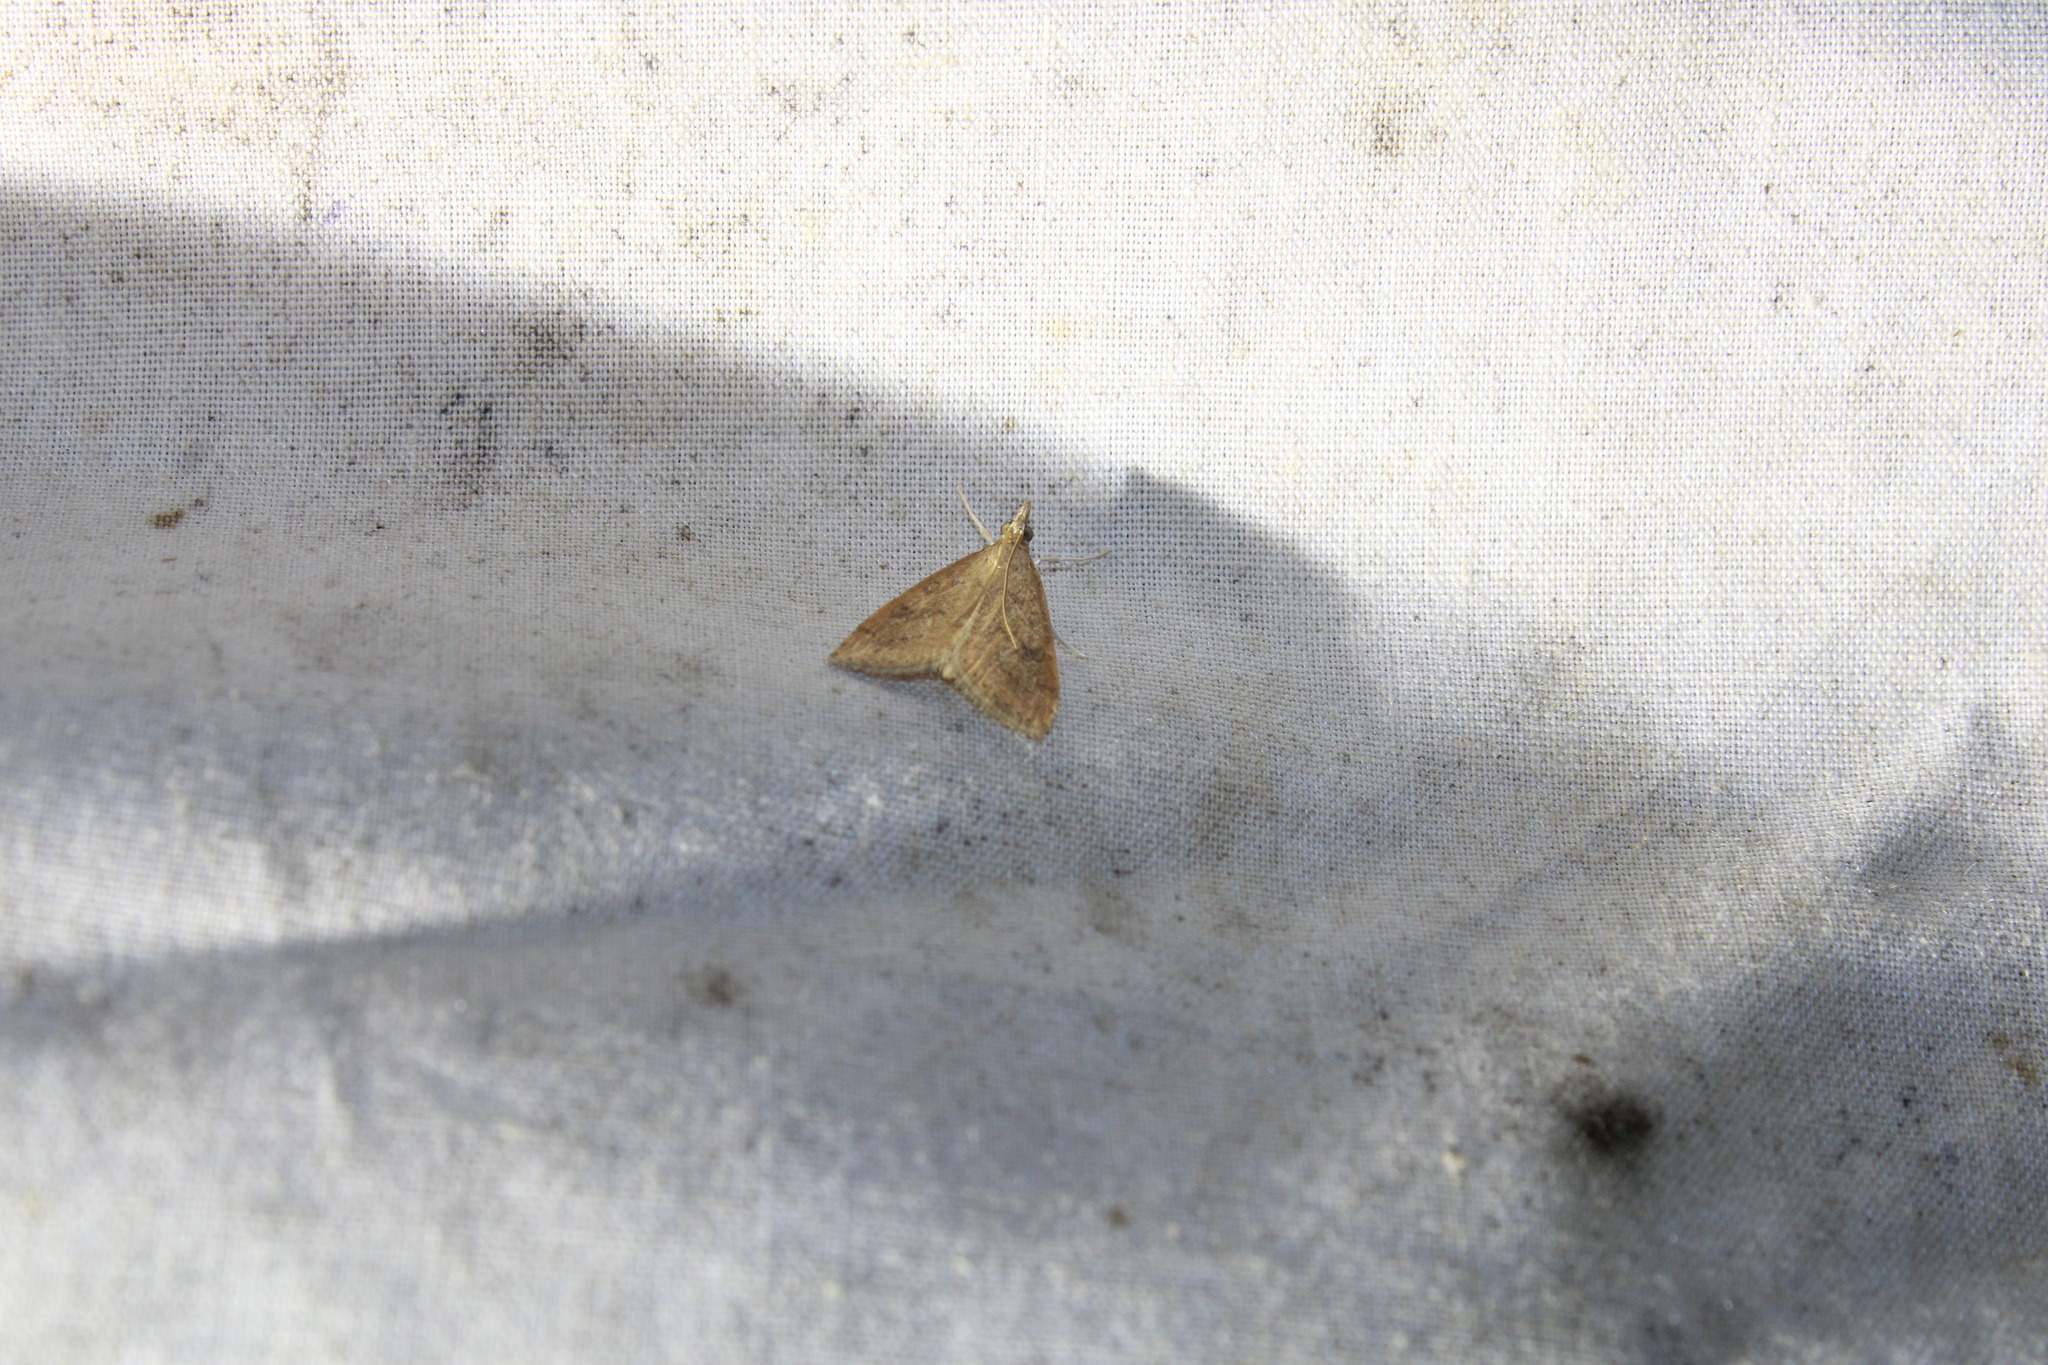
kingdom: Animalia
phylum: Arthropoda
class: Insecta
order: Lepidoptera
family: Crambidae
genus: Udea
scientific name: Udea rubigalis
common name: Celery leaftier moth
